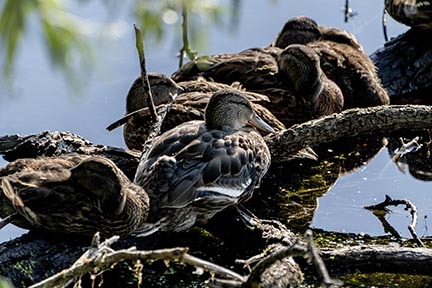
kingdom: Animalia
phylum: Chordata
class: Aves
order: Anseriformes
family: Anatidae
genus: Anas
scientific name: Anas platyrhynchos
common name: Mallard
